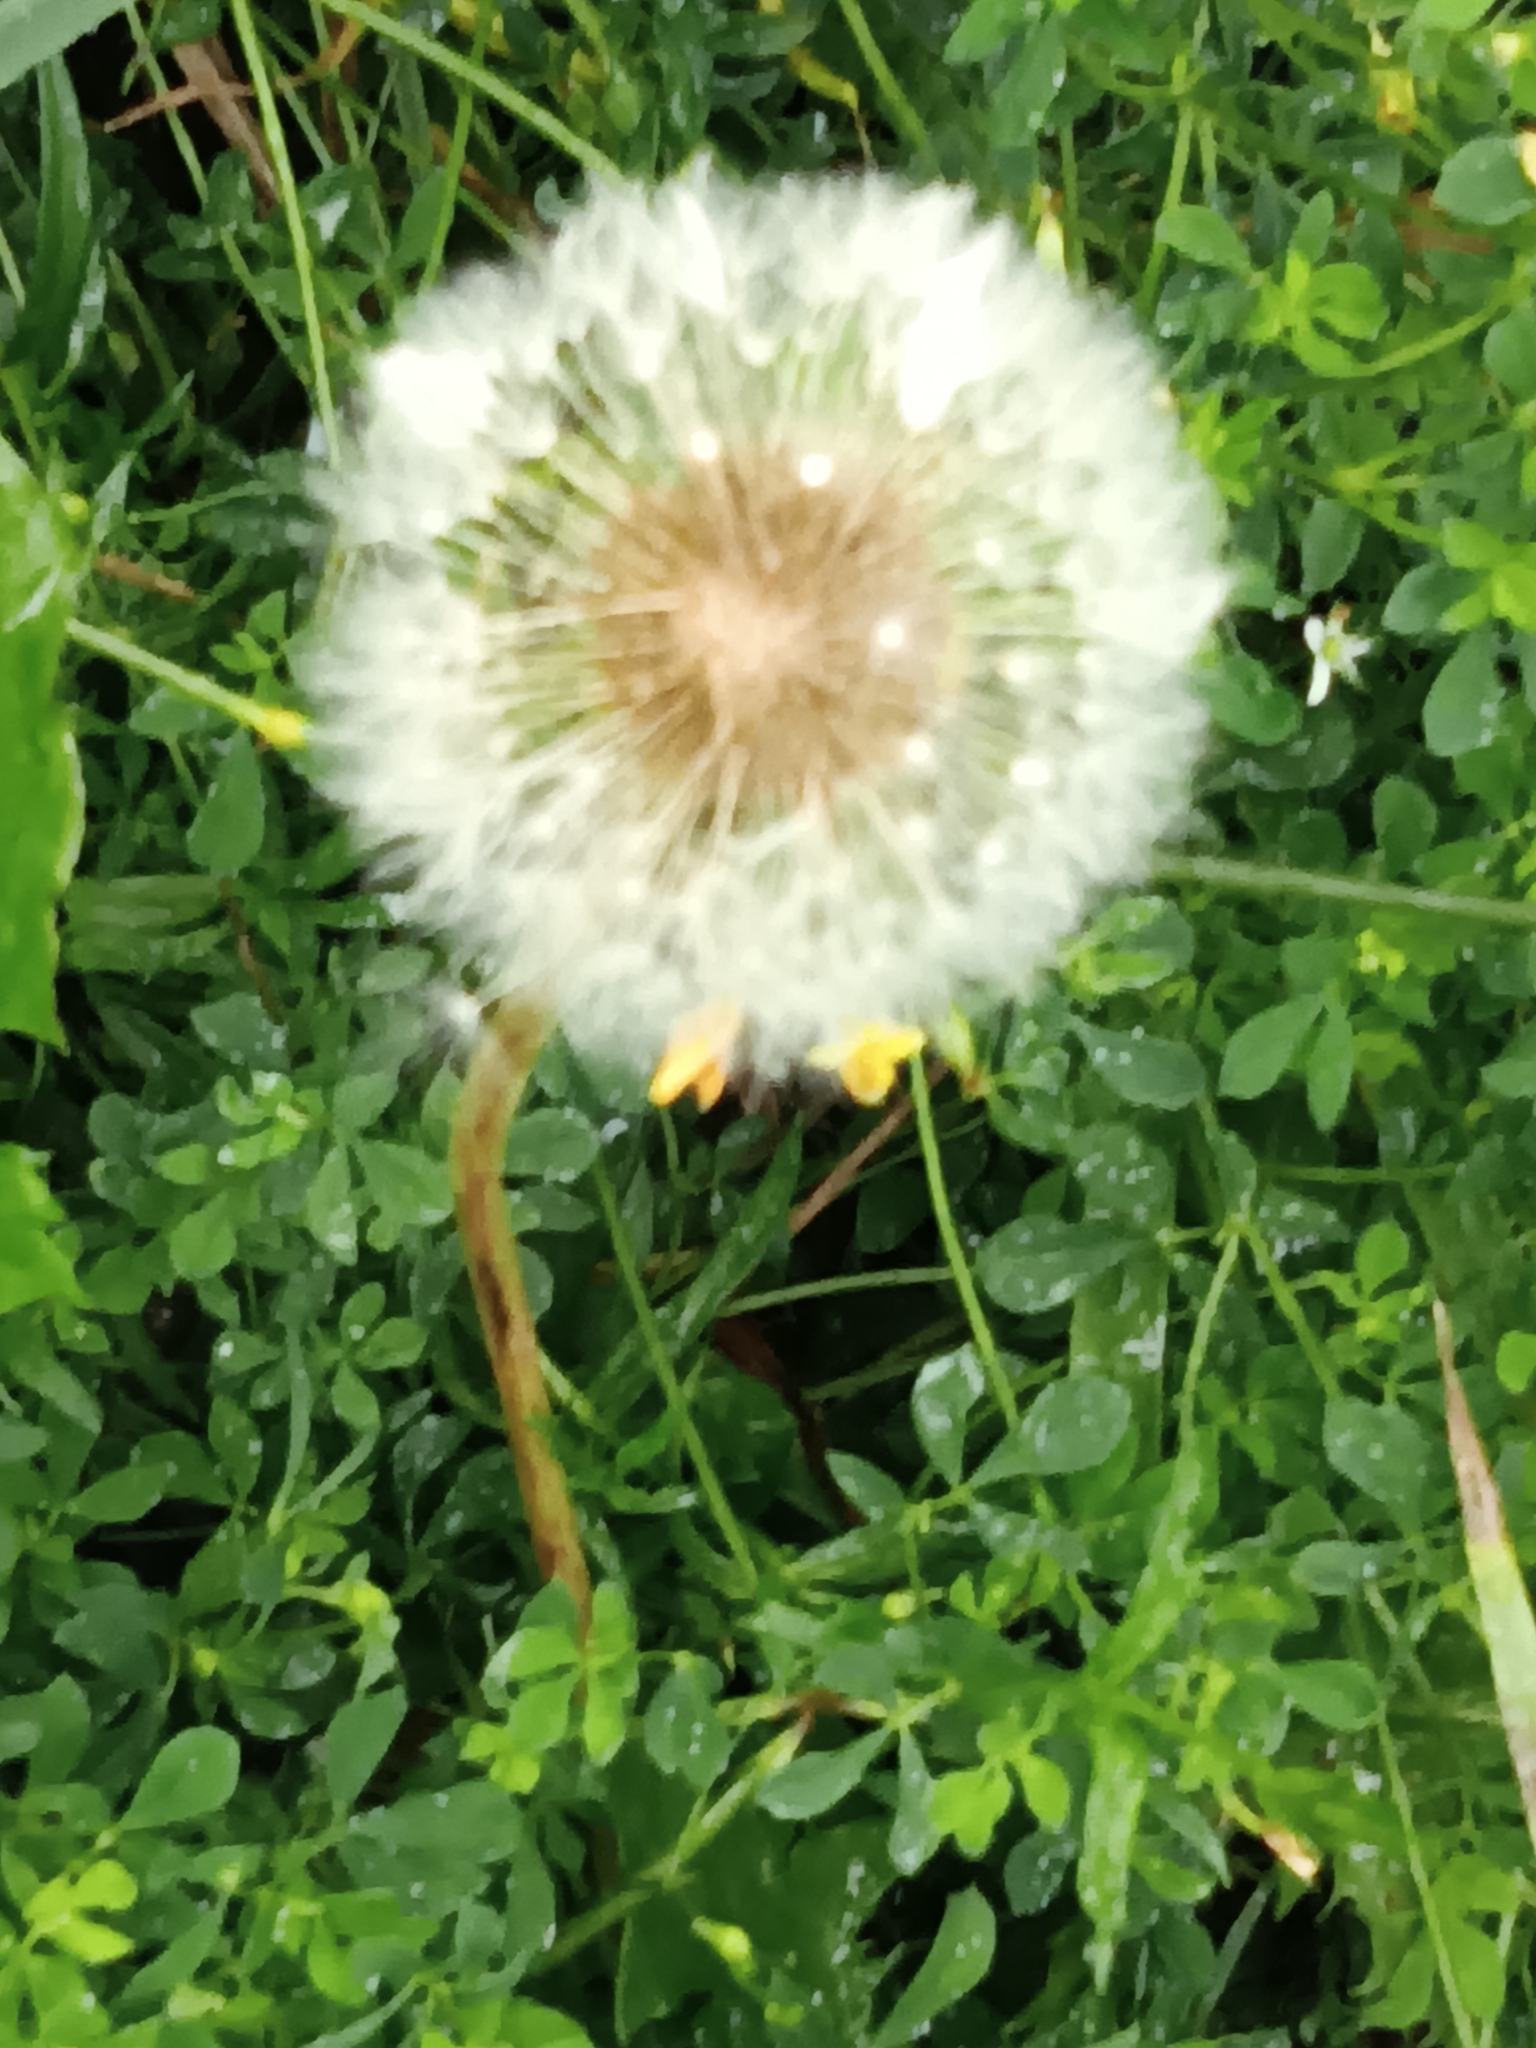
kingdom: Plantae
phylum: Tracheophyta
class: Magnoliopsida
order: Asterales
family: Asteraceae
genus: Taraxacum
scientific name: Taraxacum officinale
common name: Common dandelion
